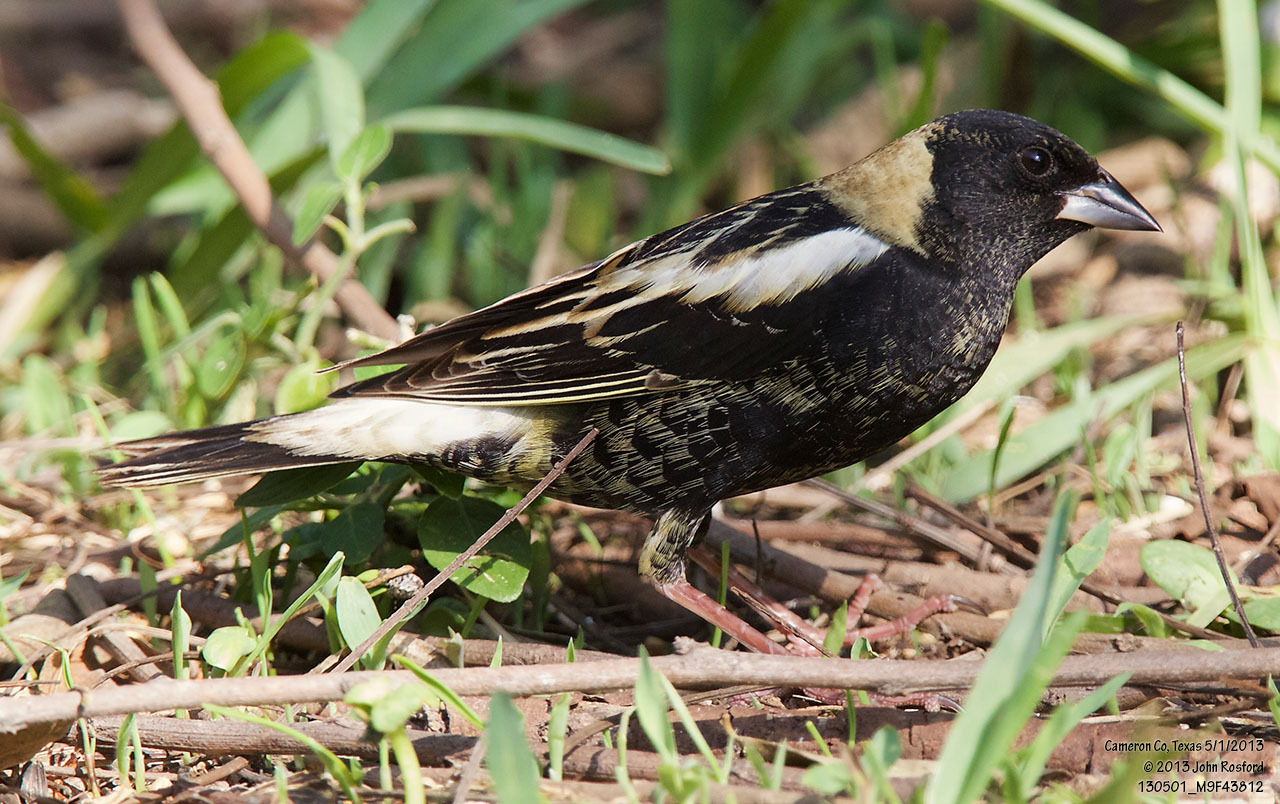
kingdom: Animalia
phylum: Chordata
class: Aves
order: Passeriformes
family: Icteridae
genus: Dolichonyx
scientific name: Dolichonyx oryzivorus
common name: Bobolink
